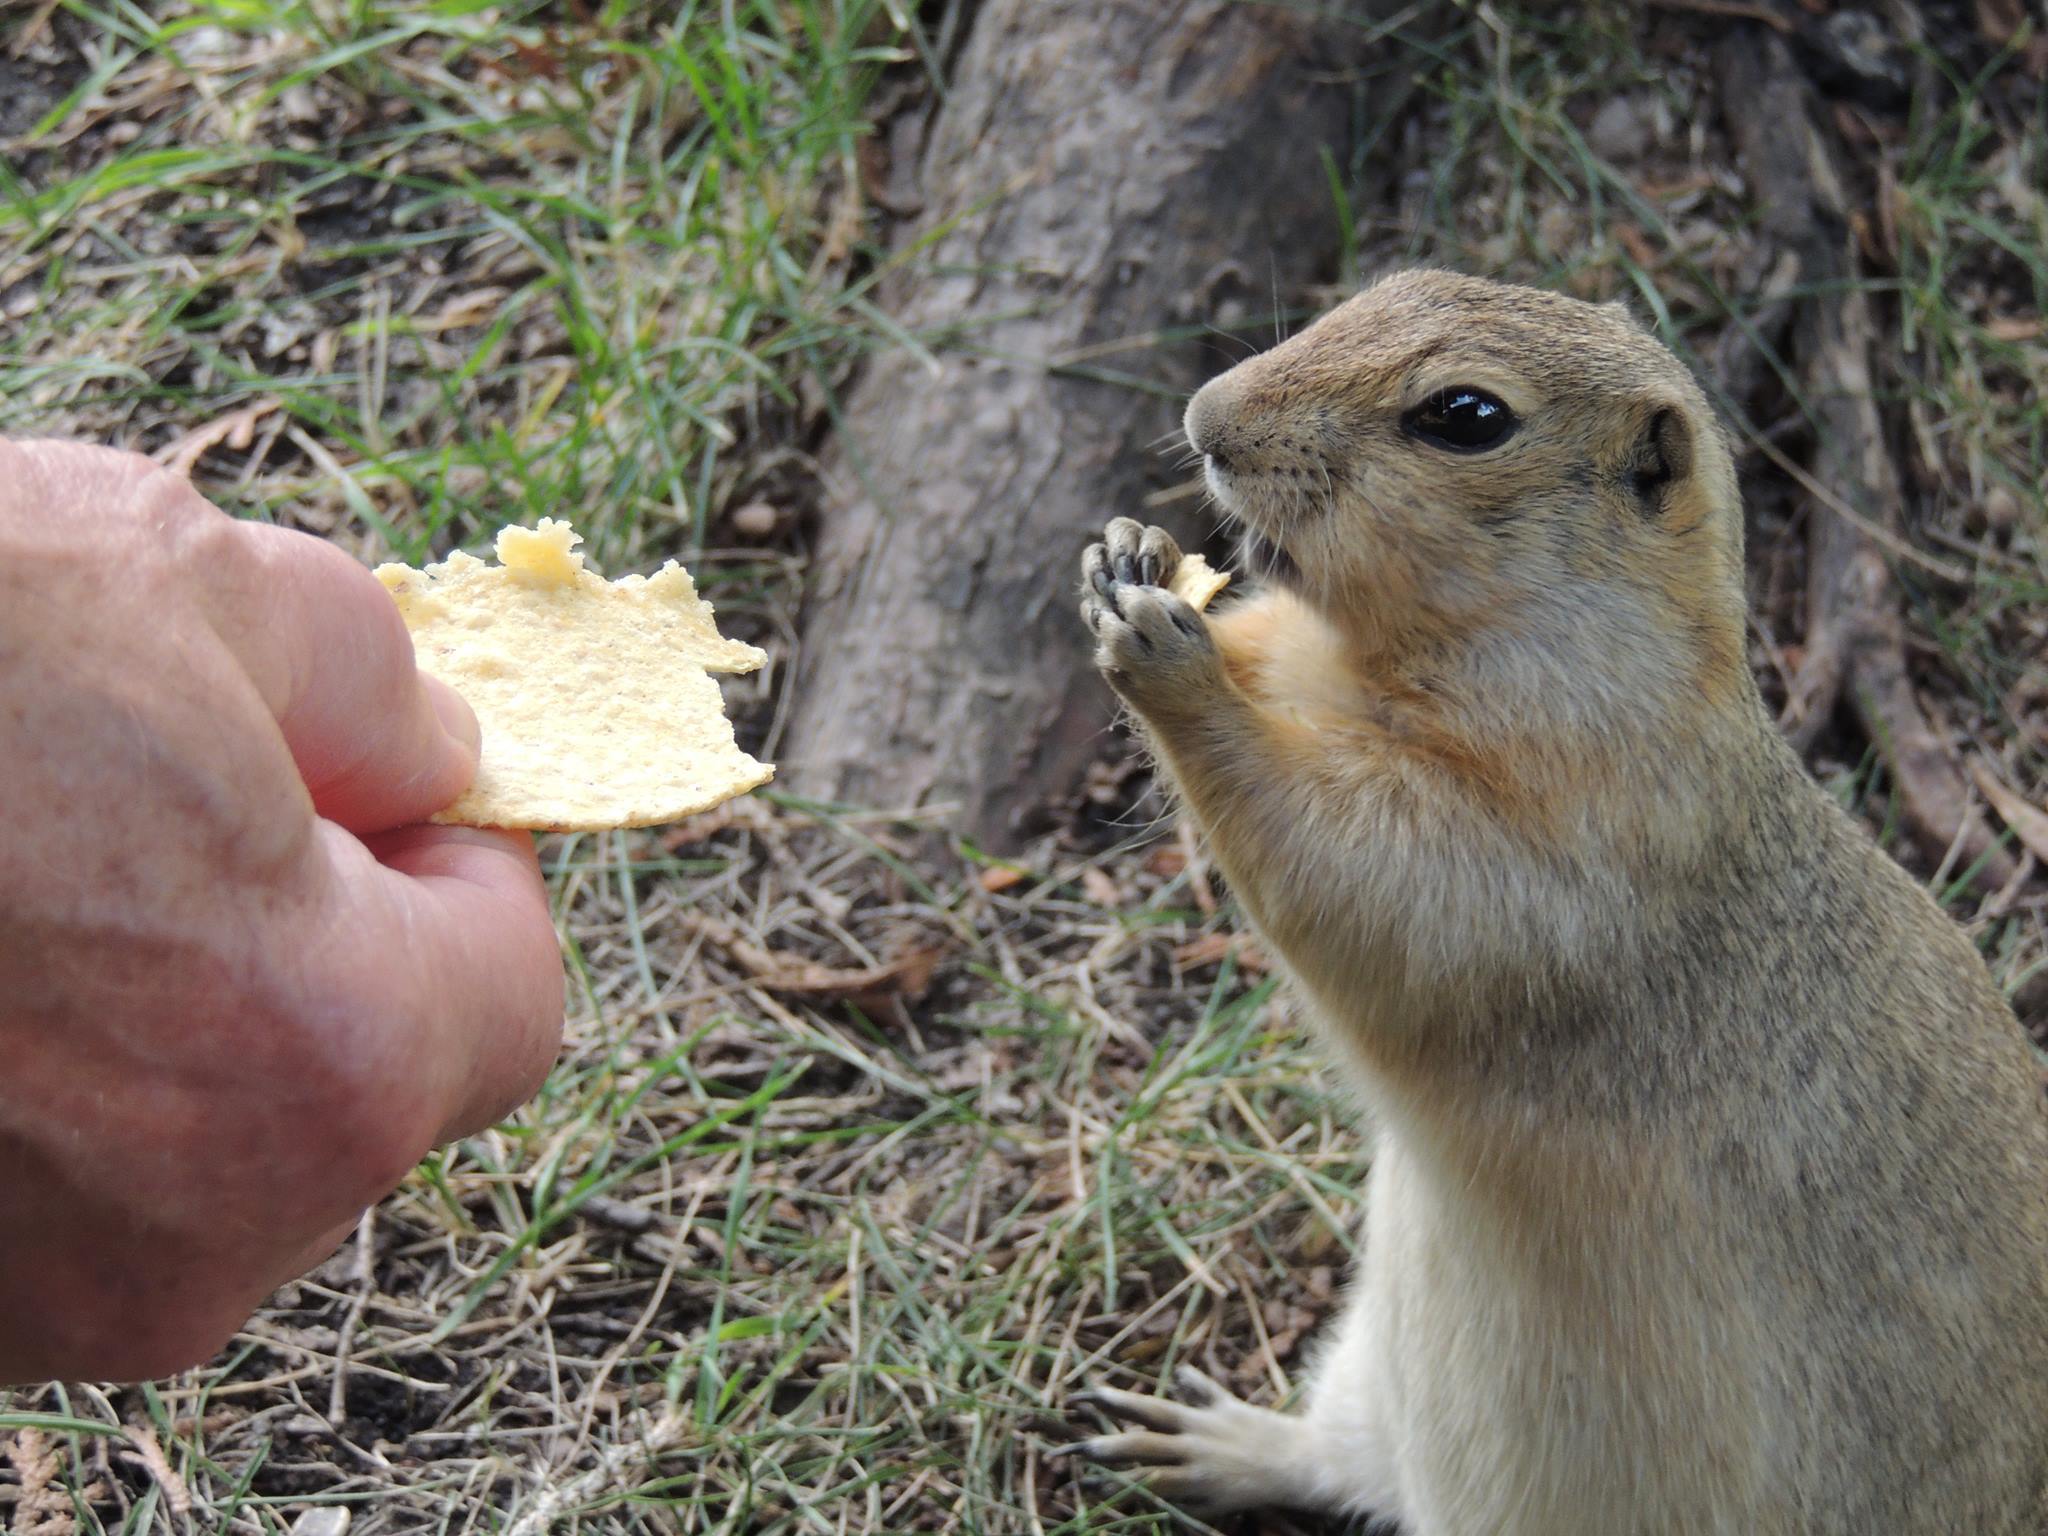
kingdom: Animalia
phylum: Chordata
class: Mammalia
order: Rodentia
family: Sciuridae
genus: Urocitellus
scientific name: Urocitellus richardsonii
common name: Richardson's ground squirrel
